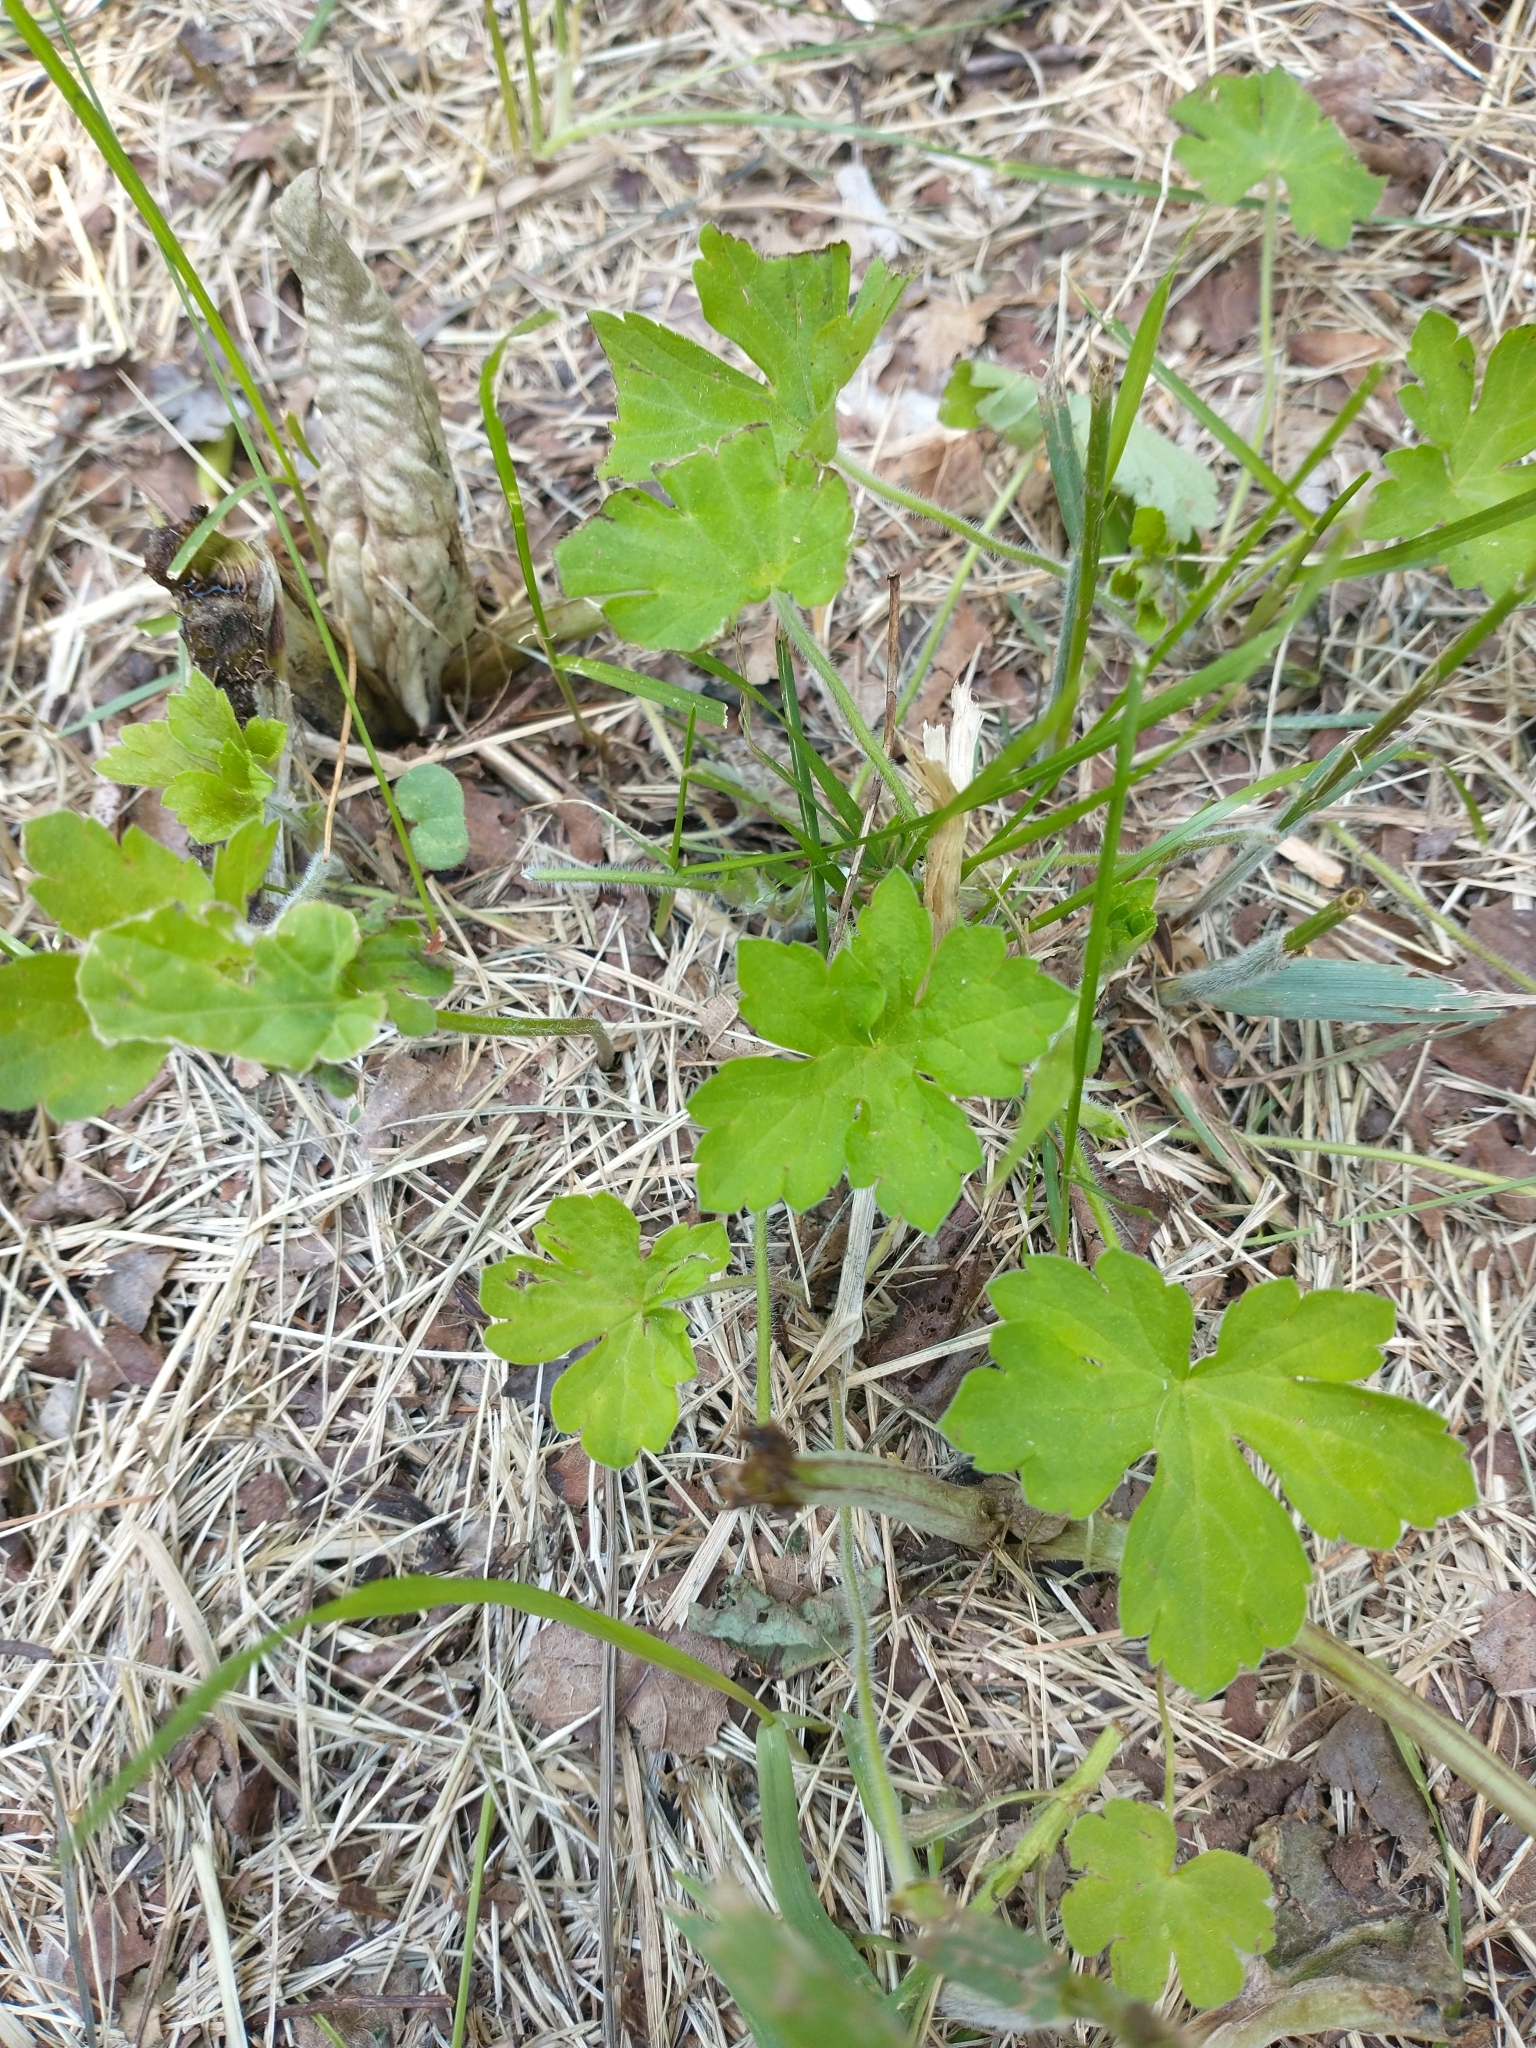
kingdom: Plantae
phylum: Tracheophyta
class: Magnoliopsida
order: Geraniales
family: Geraniaceae
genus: Geranium
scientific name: Geranium thunbergii
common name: Dewdrop crane's-bill
